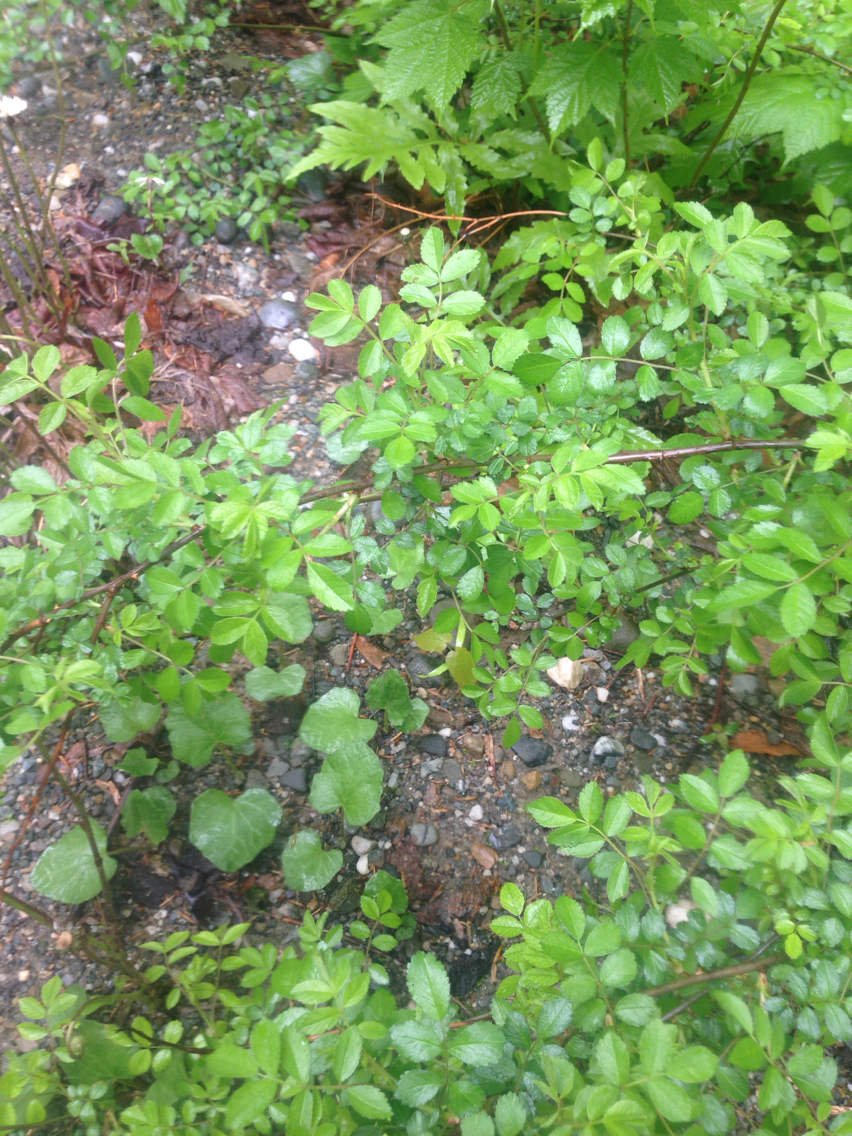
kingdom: Plantae
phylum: Tracheophyta
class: Magnoliopsida
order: Rosales
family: Rosaceae
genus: Rosa
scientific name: Rosa multiflora
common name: Multiflora rose
